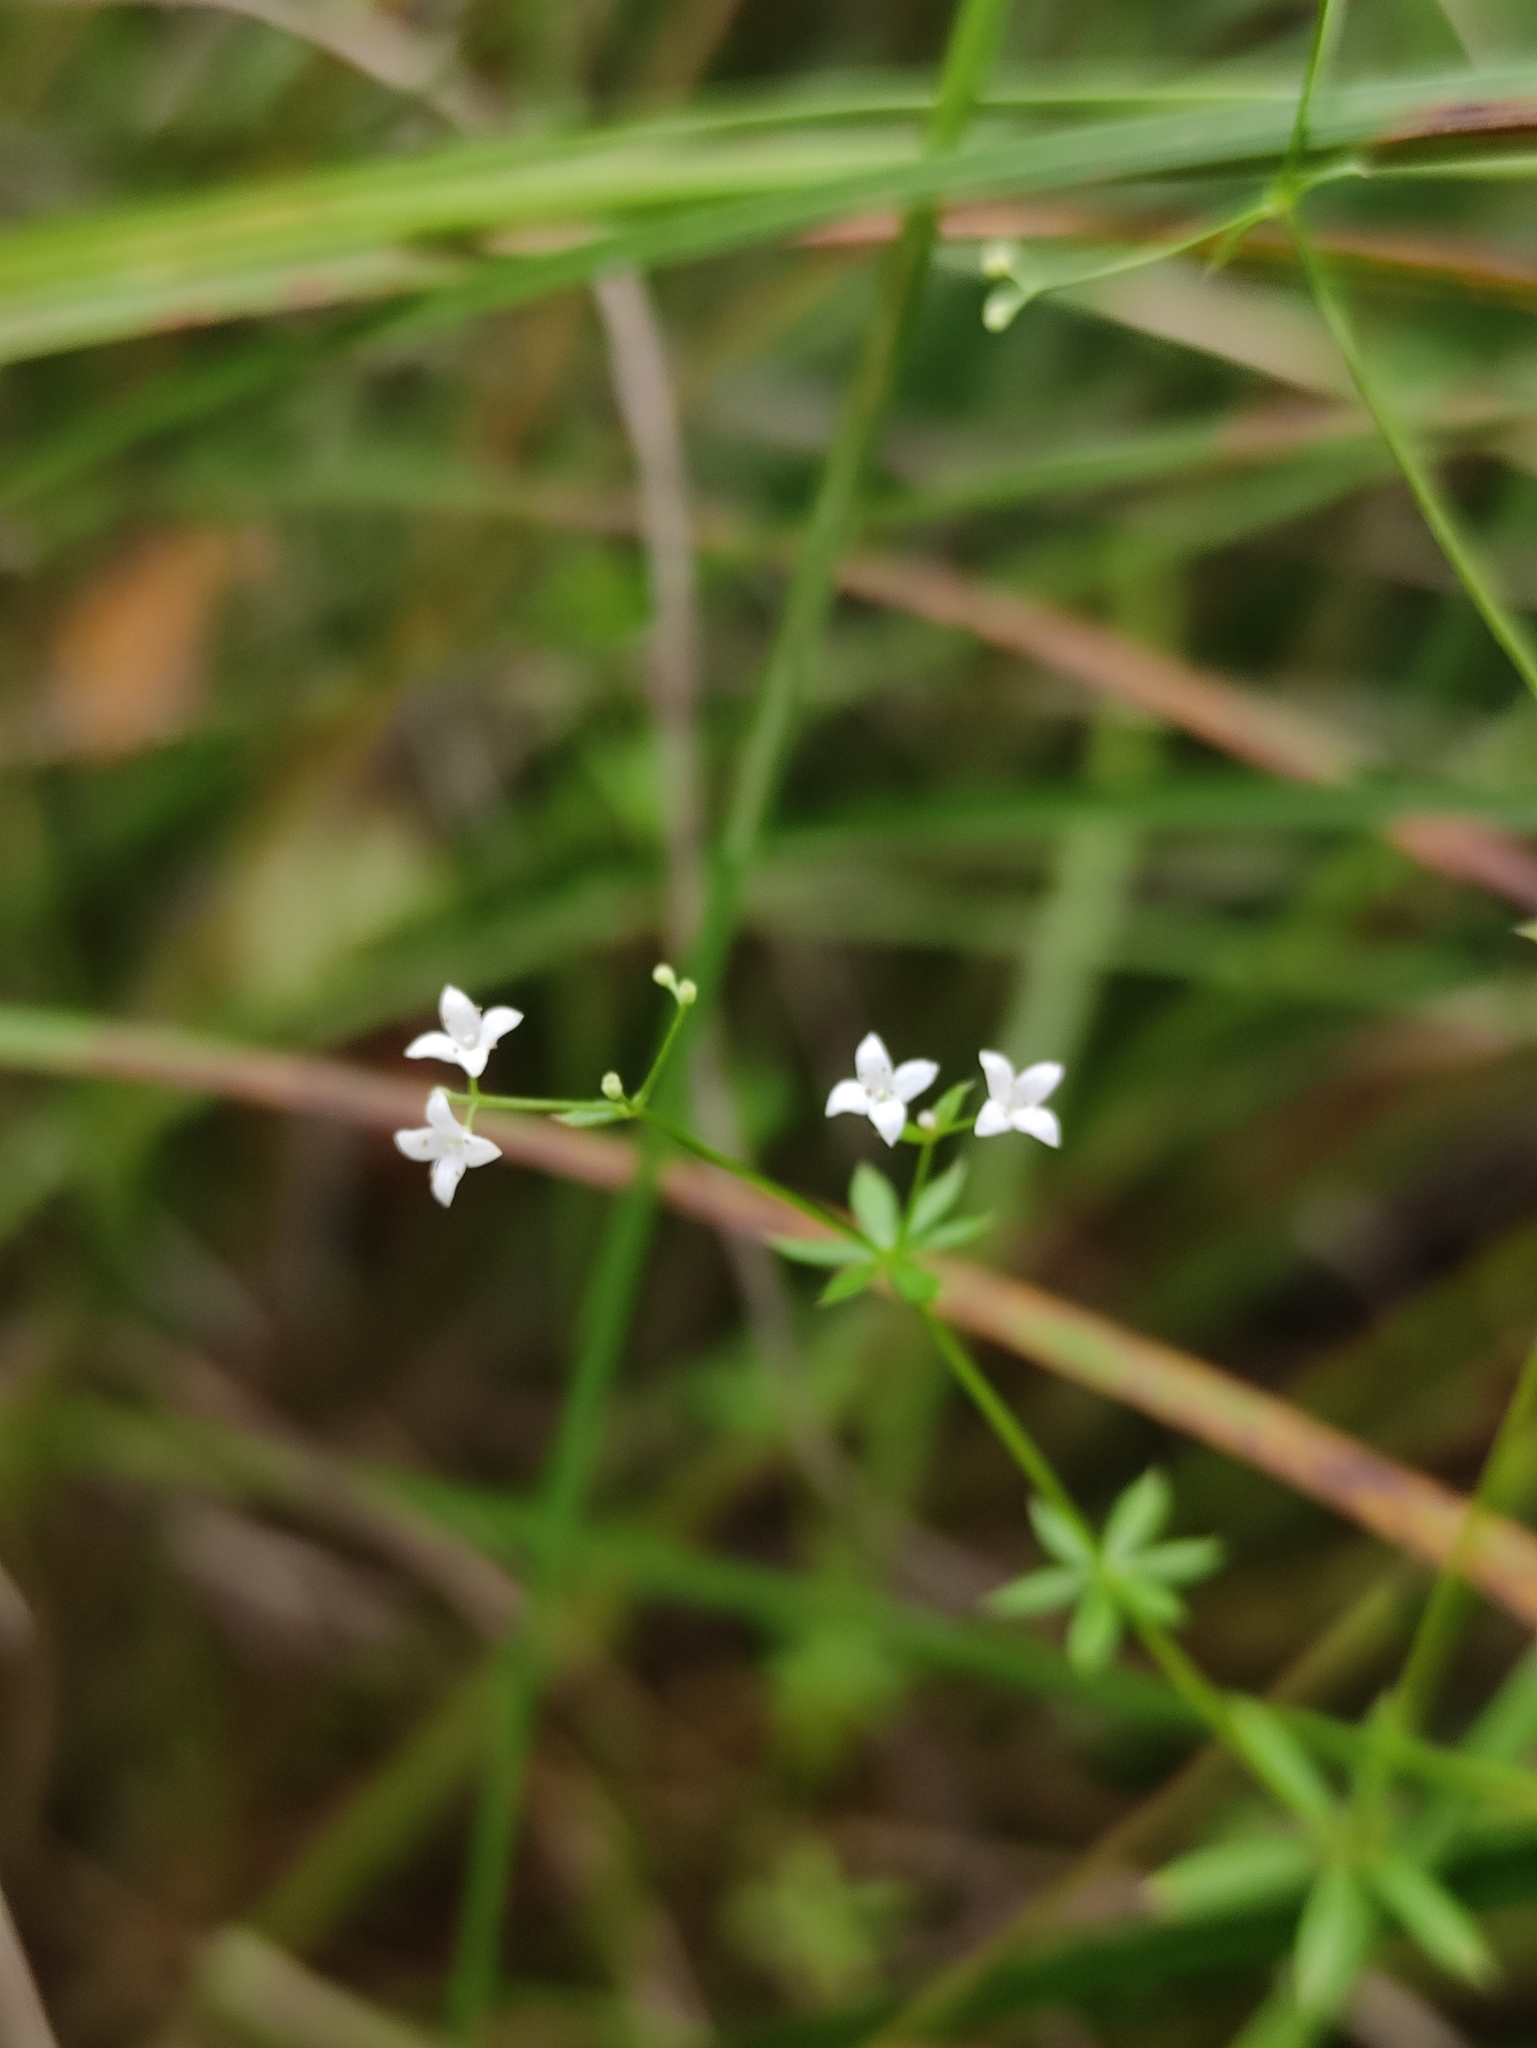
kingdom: Plantae
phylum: Tracheophyta
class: Magnoliopsida
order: Gentianales
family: Rubiaceae
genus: Galium
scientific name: Galium uliginosum
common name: Fen bedstraw
